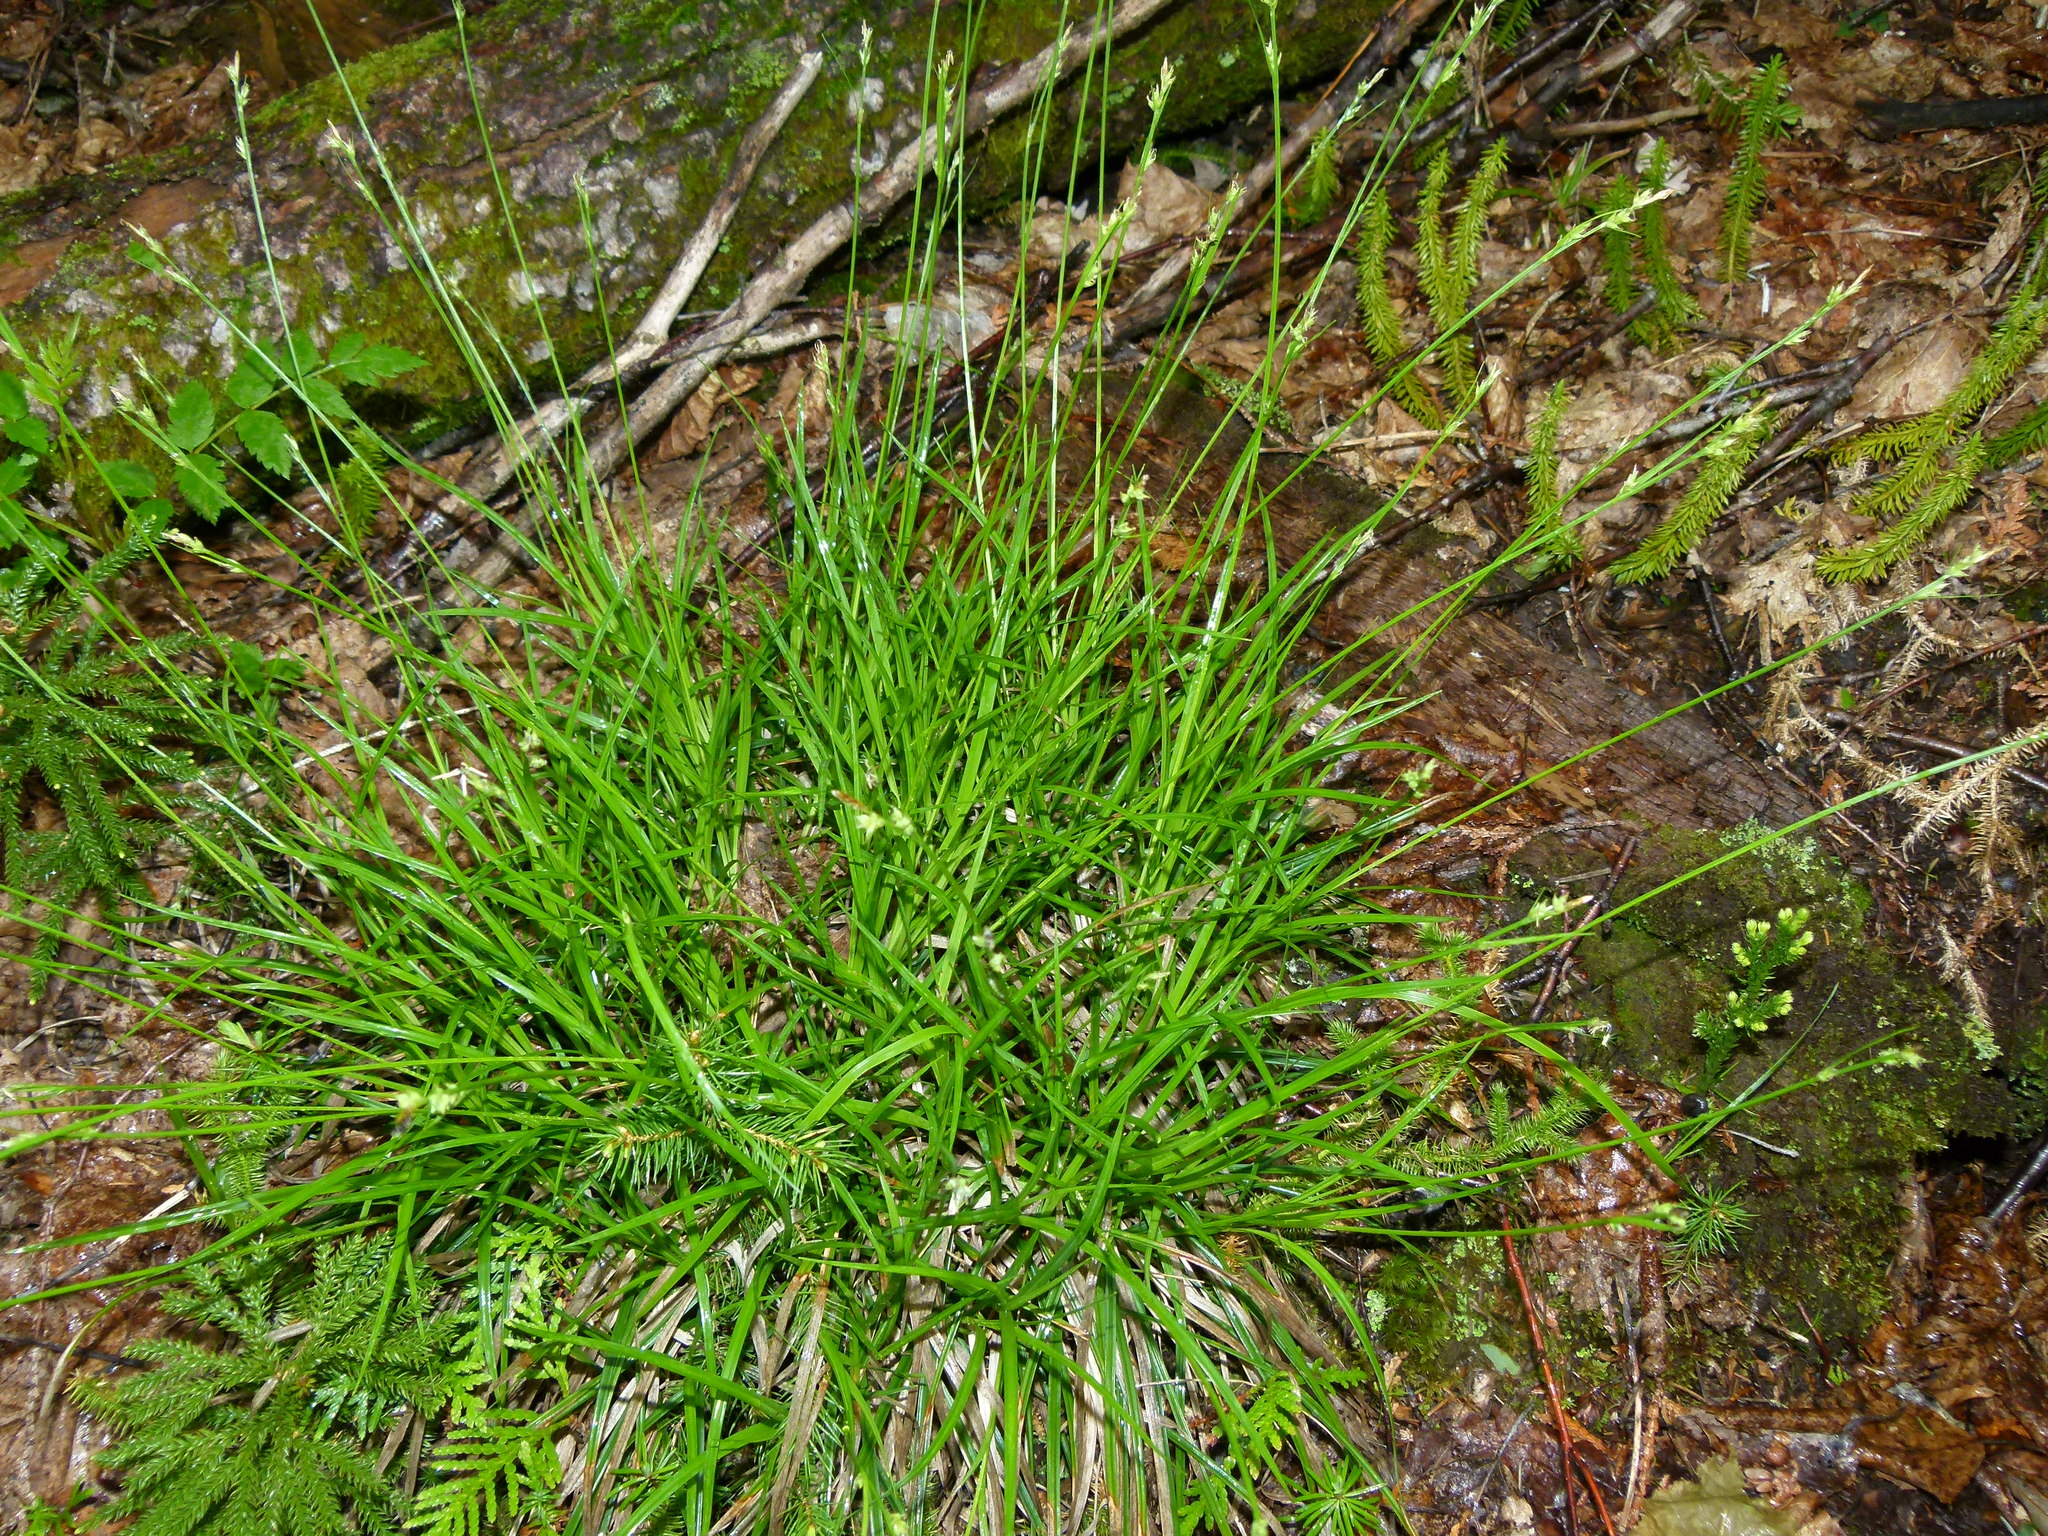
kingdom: Plantae
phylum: Tracheophyta
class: Liliopsida
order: Poales
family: Cyperaceae
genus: Carex
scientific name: Carex communis
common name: Colonial oak sedge
